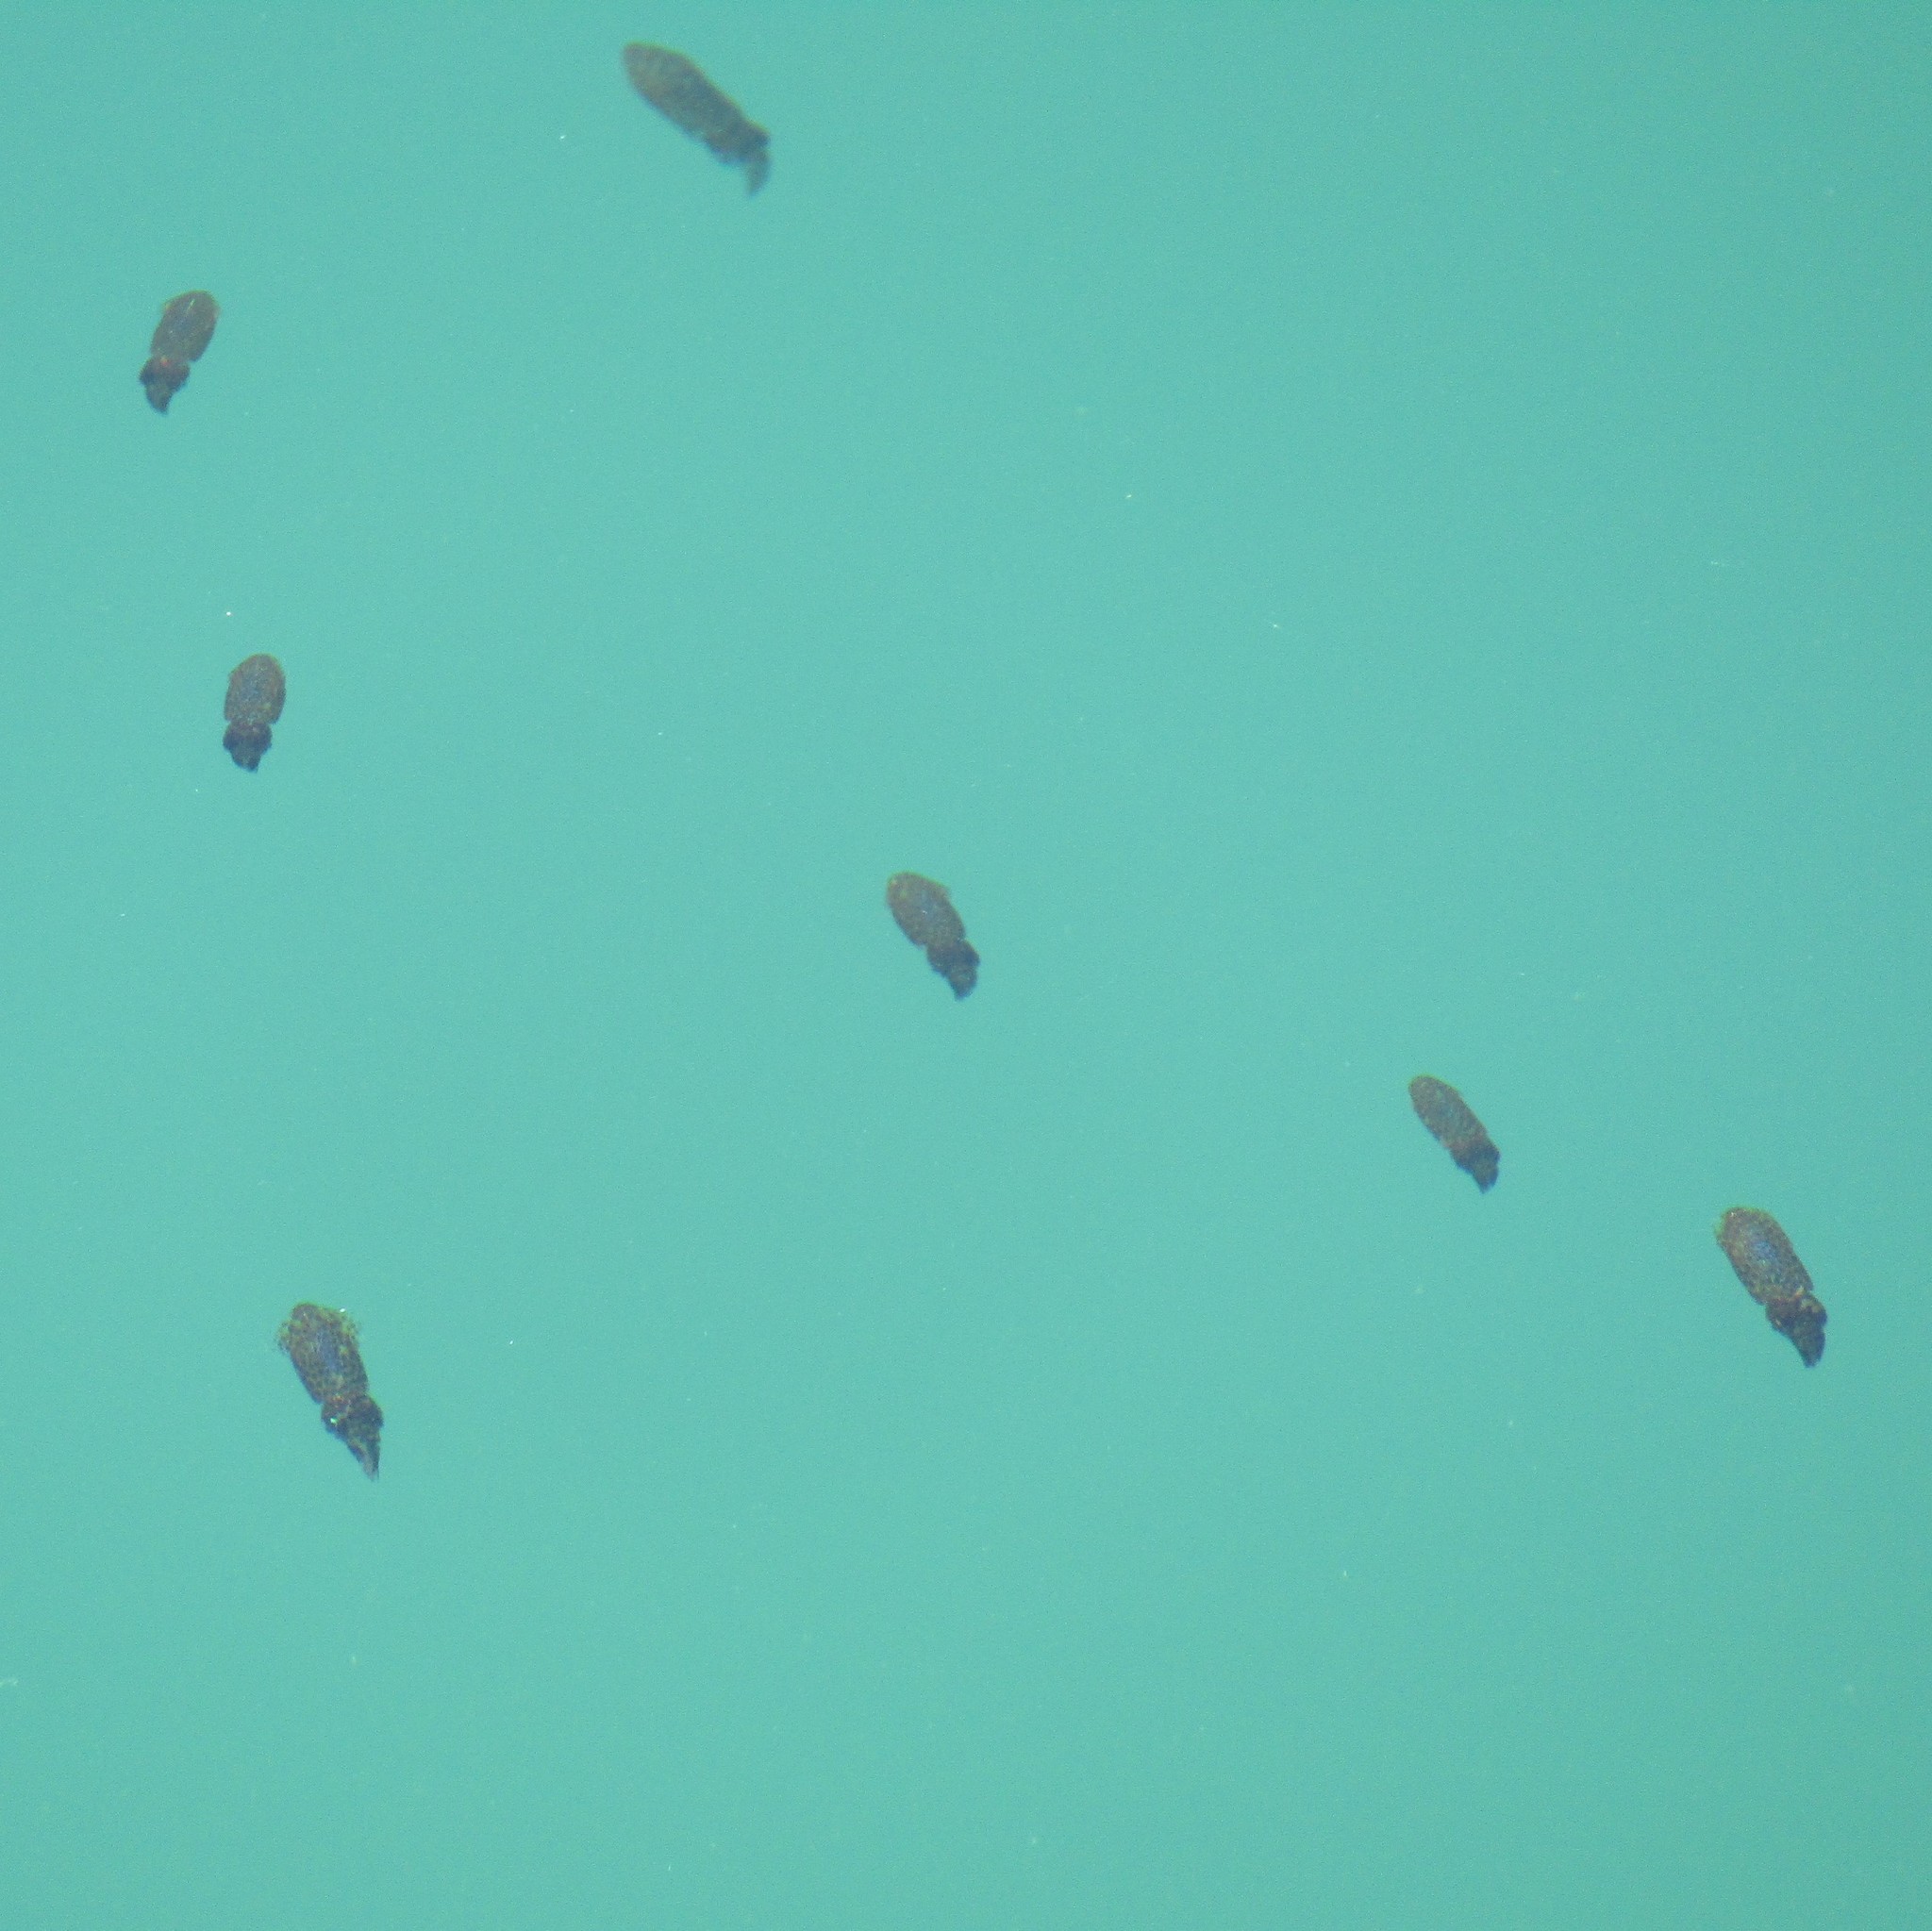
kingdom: Animalia
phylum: Mollusca
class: Cephalopoda
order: Myopsida
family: Loliginidae
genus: Sepioteuthis
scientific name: Sepioteuthis australis
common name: Southern reef squid
